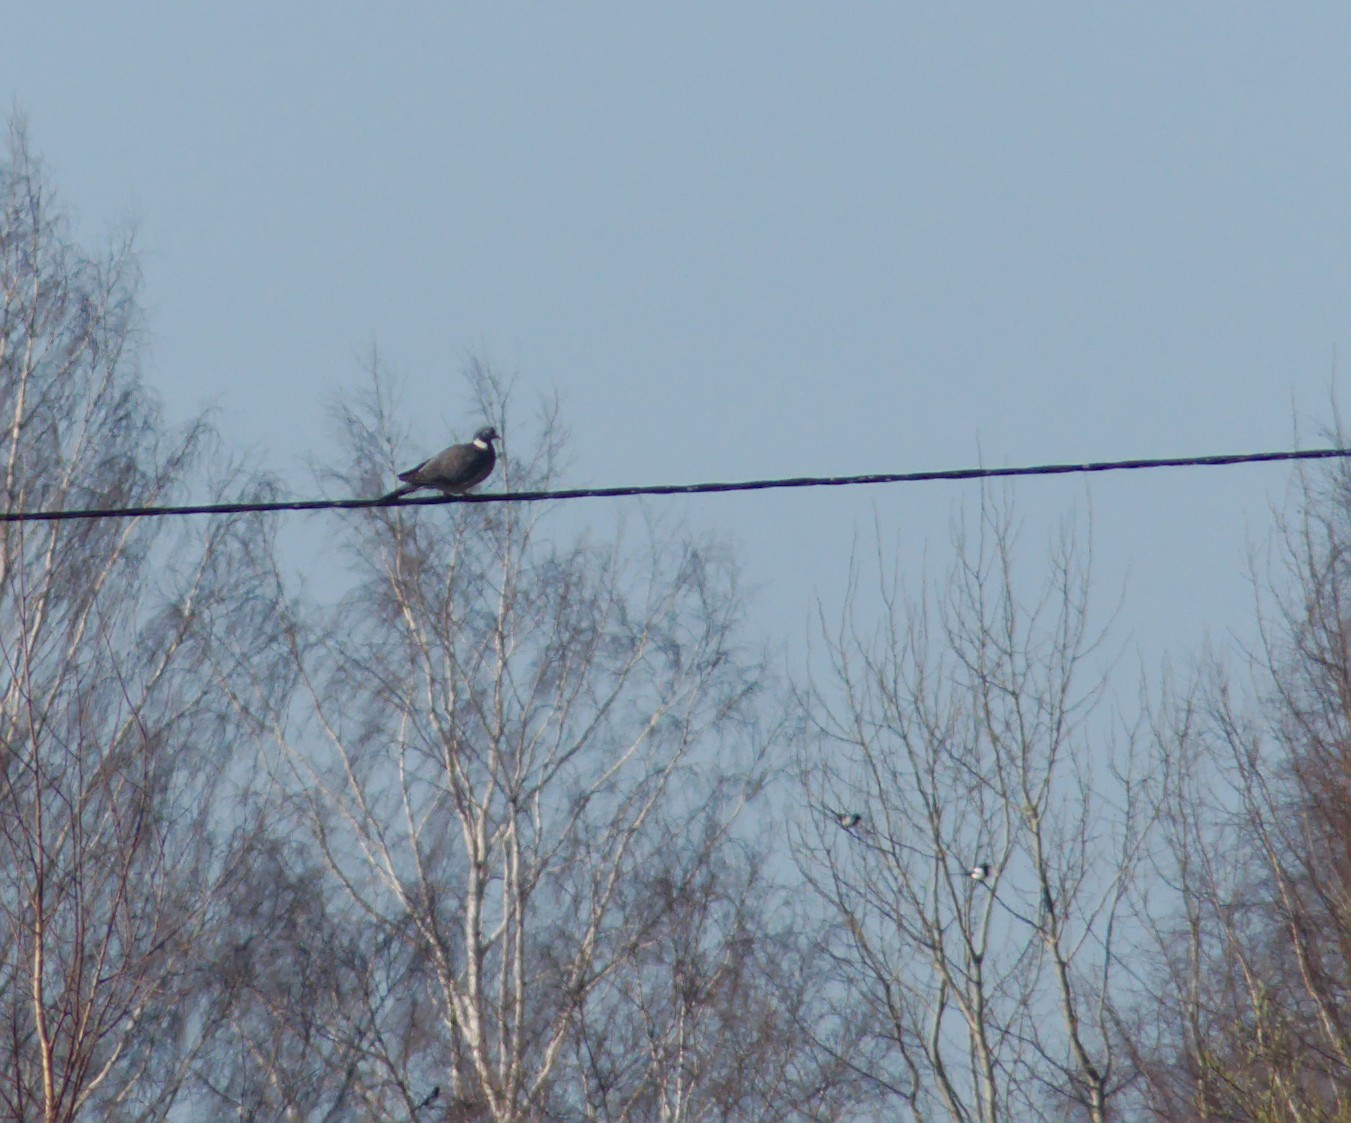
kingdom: Animalia
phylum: Chordata
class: Aves
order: Passeriformes
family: Corvidae
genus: Pica
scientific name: Pica pica
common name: Eurasian magpie
